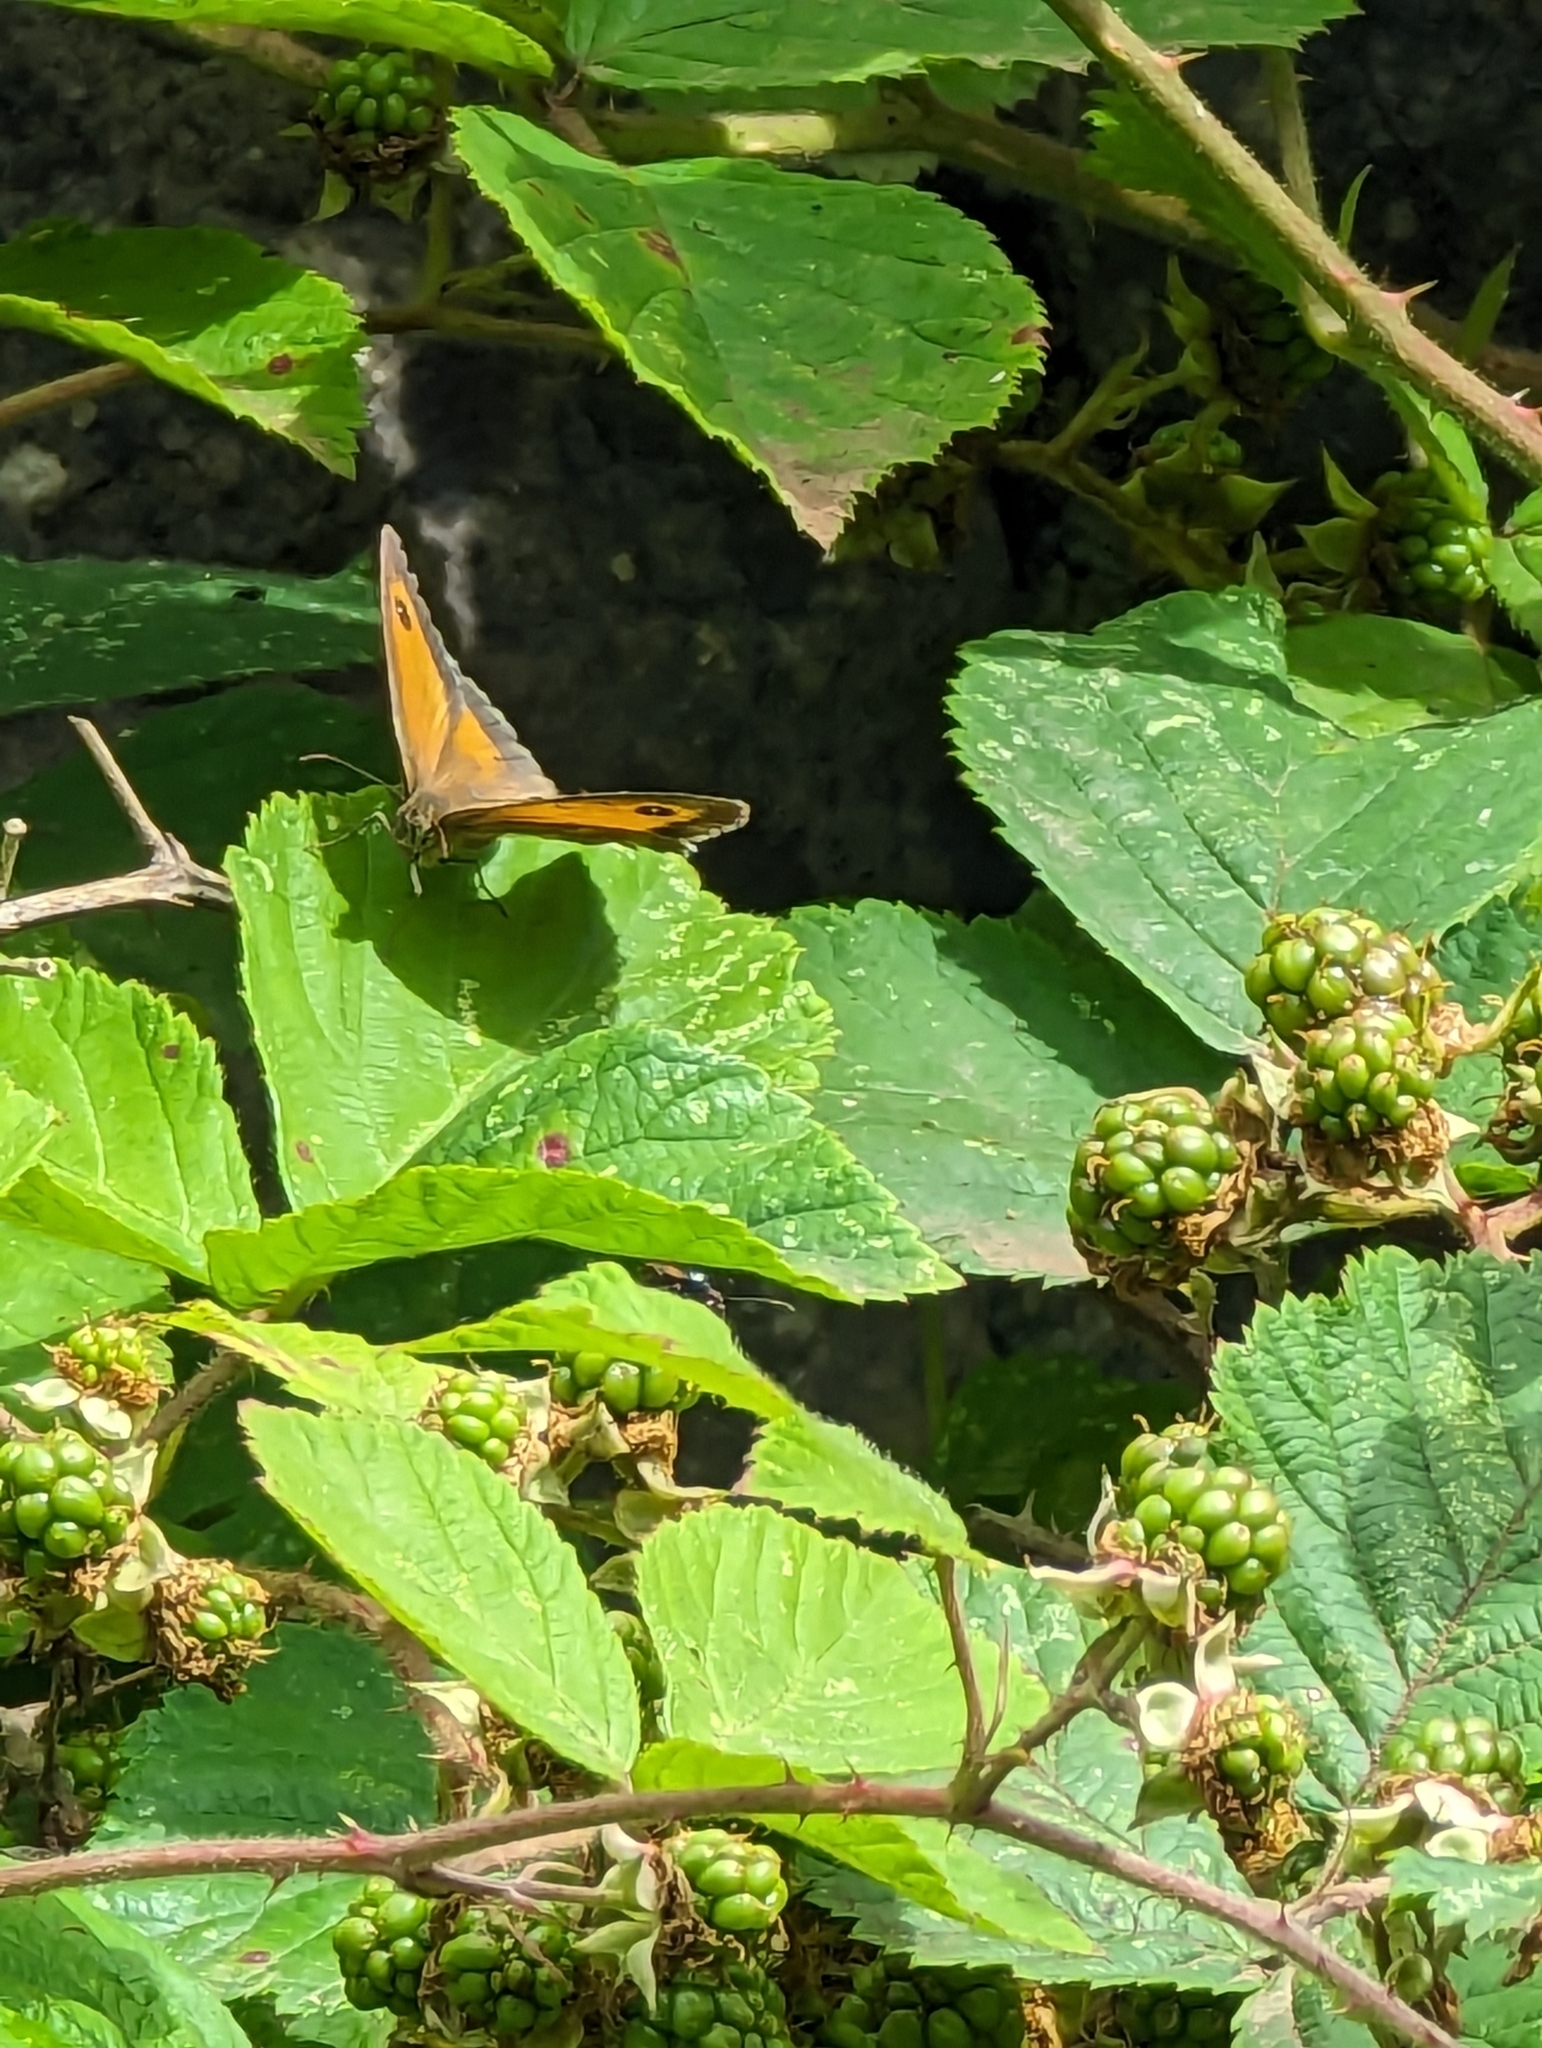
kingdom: Animalia
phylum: Arthropoda
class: Insecta
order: Lepidoptera
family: Nymphalidae
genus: Pyronia
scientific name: Pyronia tithonus
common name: Gatekeeper
